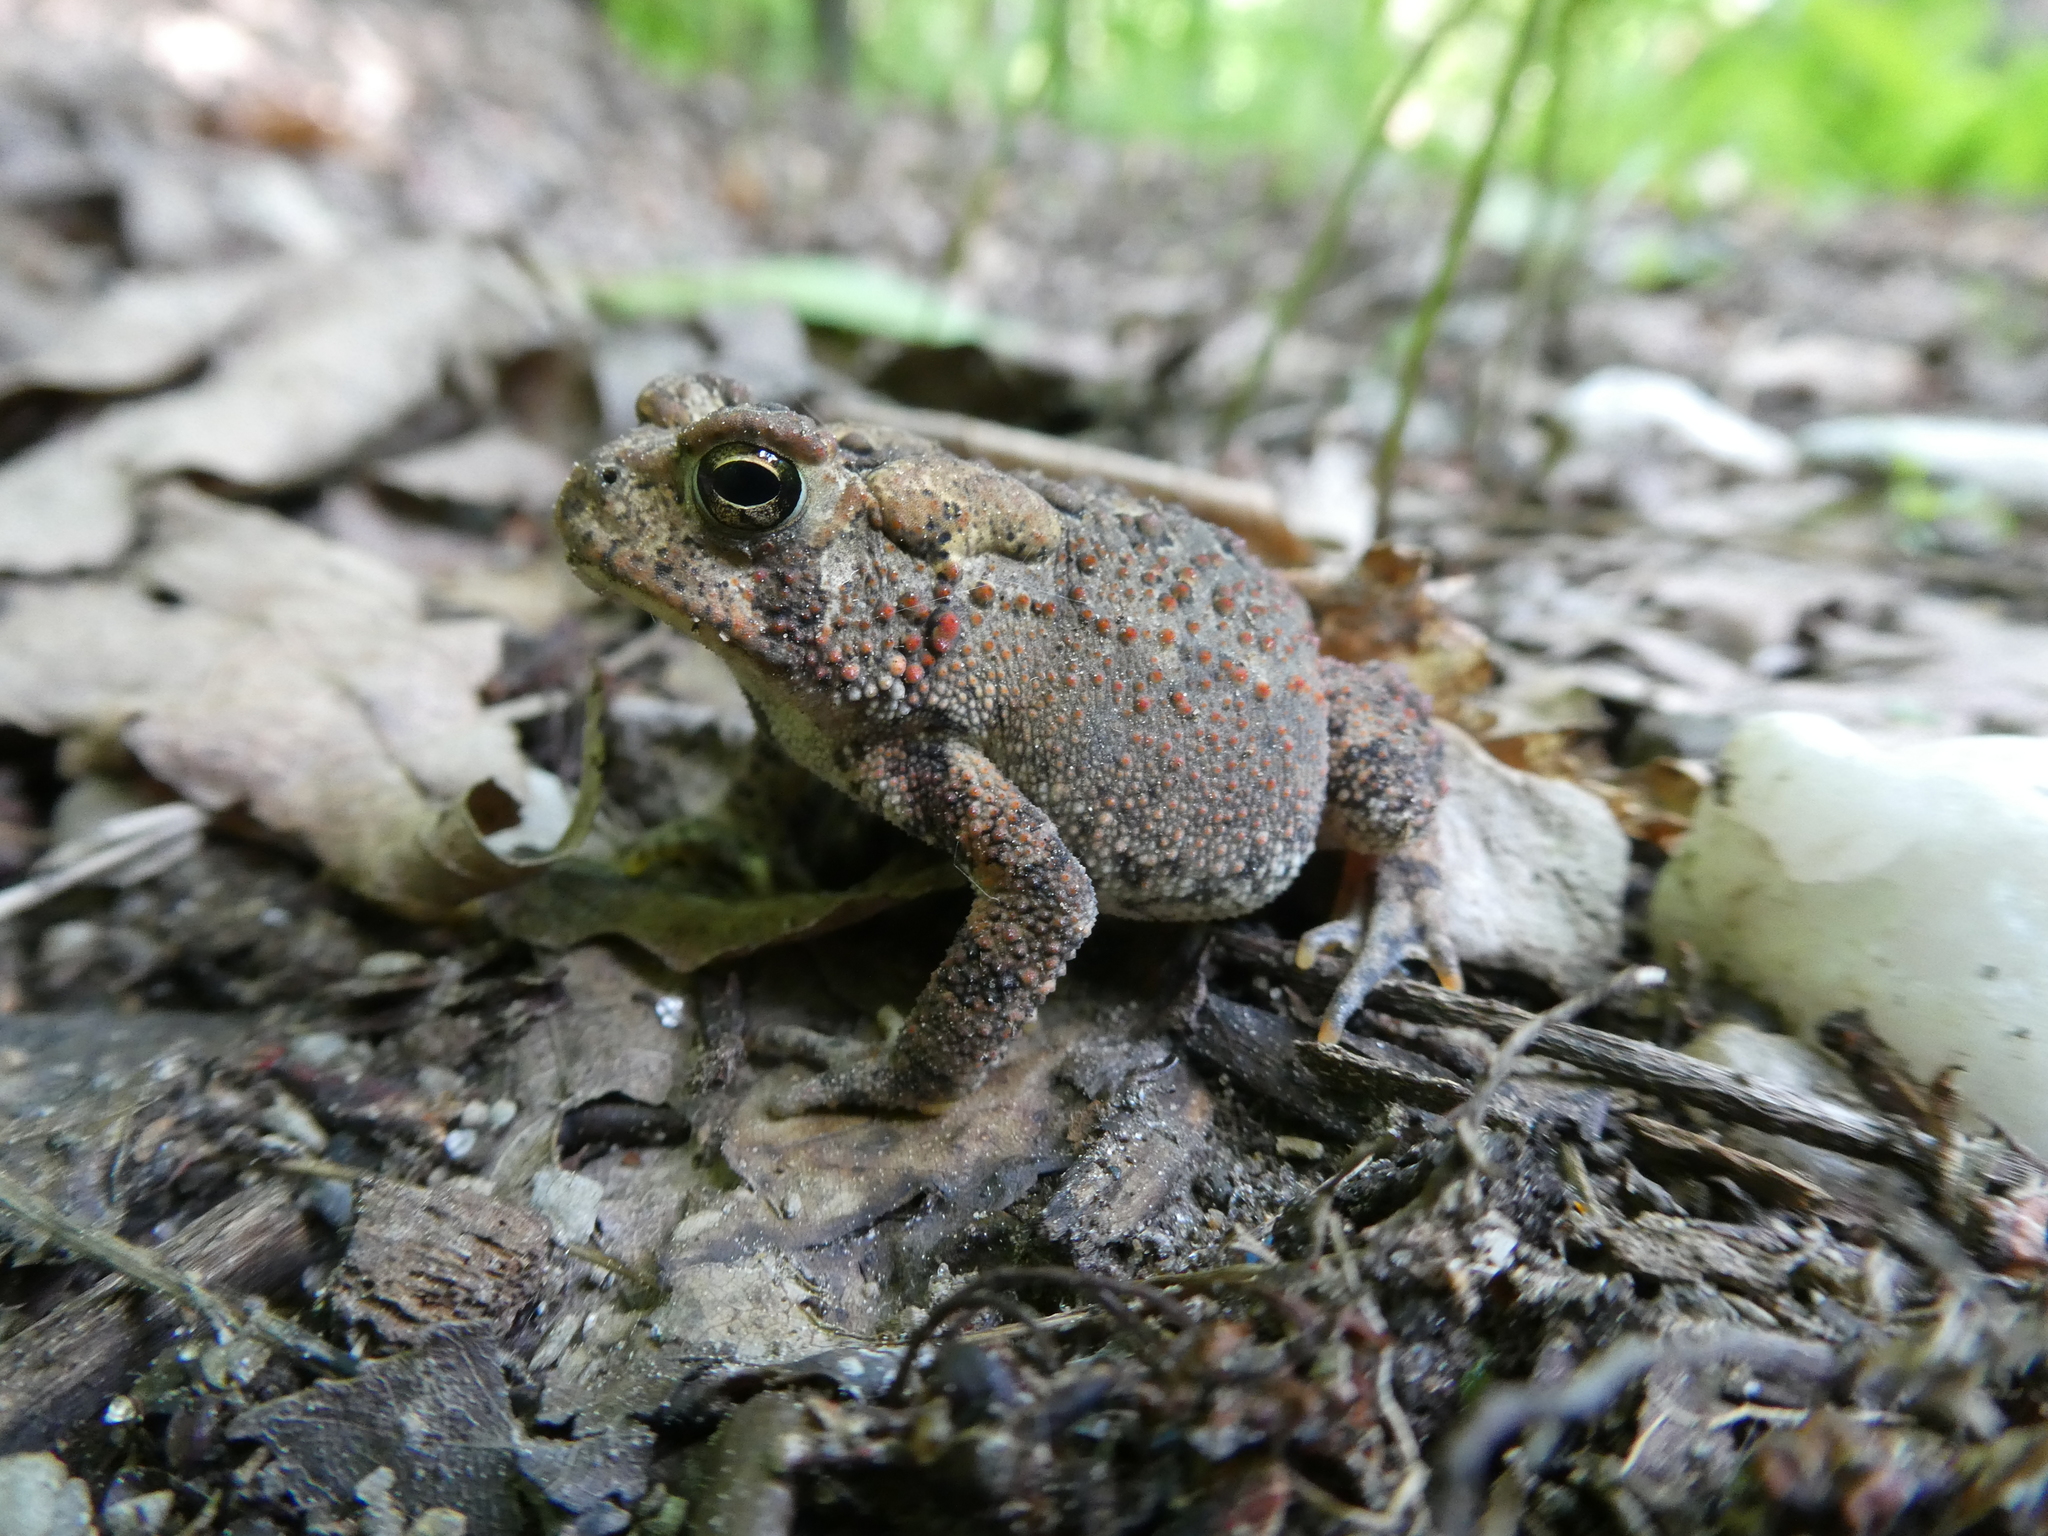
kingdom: Animalia
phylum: Chordata
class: Amphibia
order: Anura
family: Bufonidae
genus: Anaxyrus
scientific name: Anaxyrus americanus
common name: American toad
